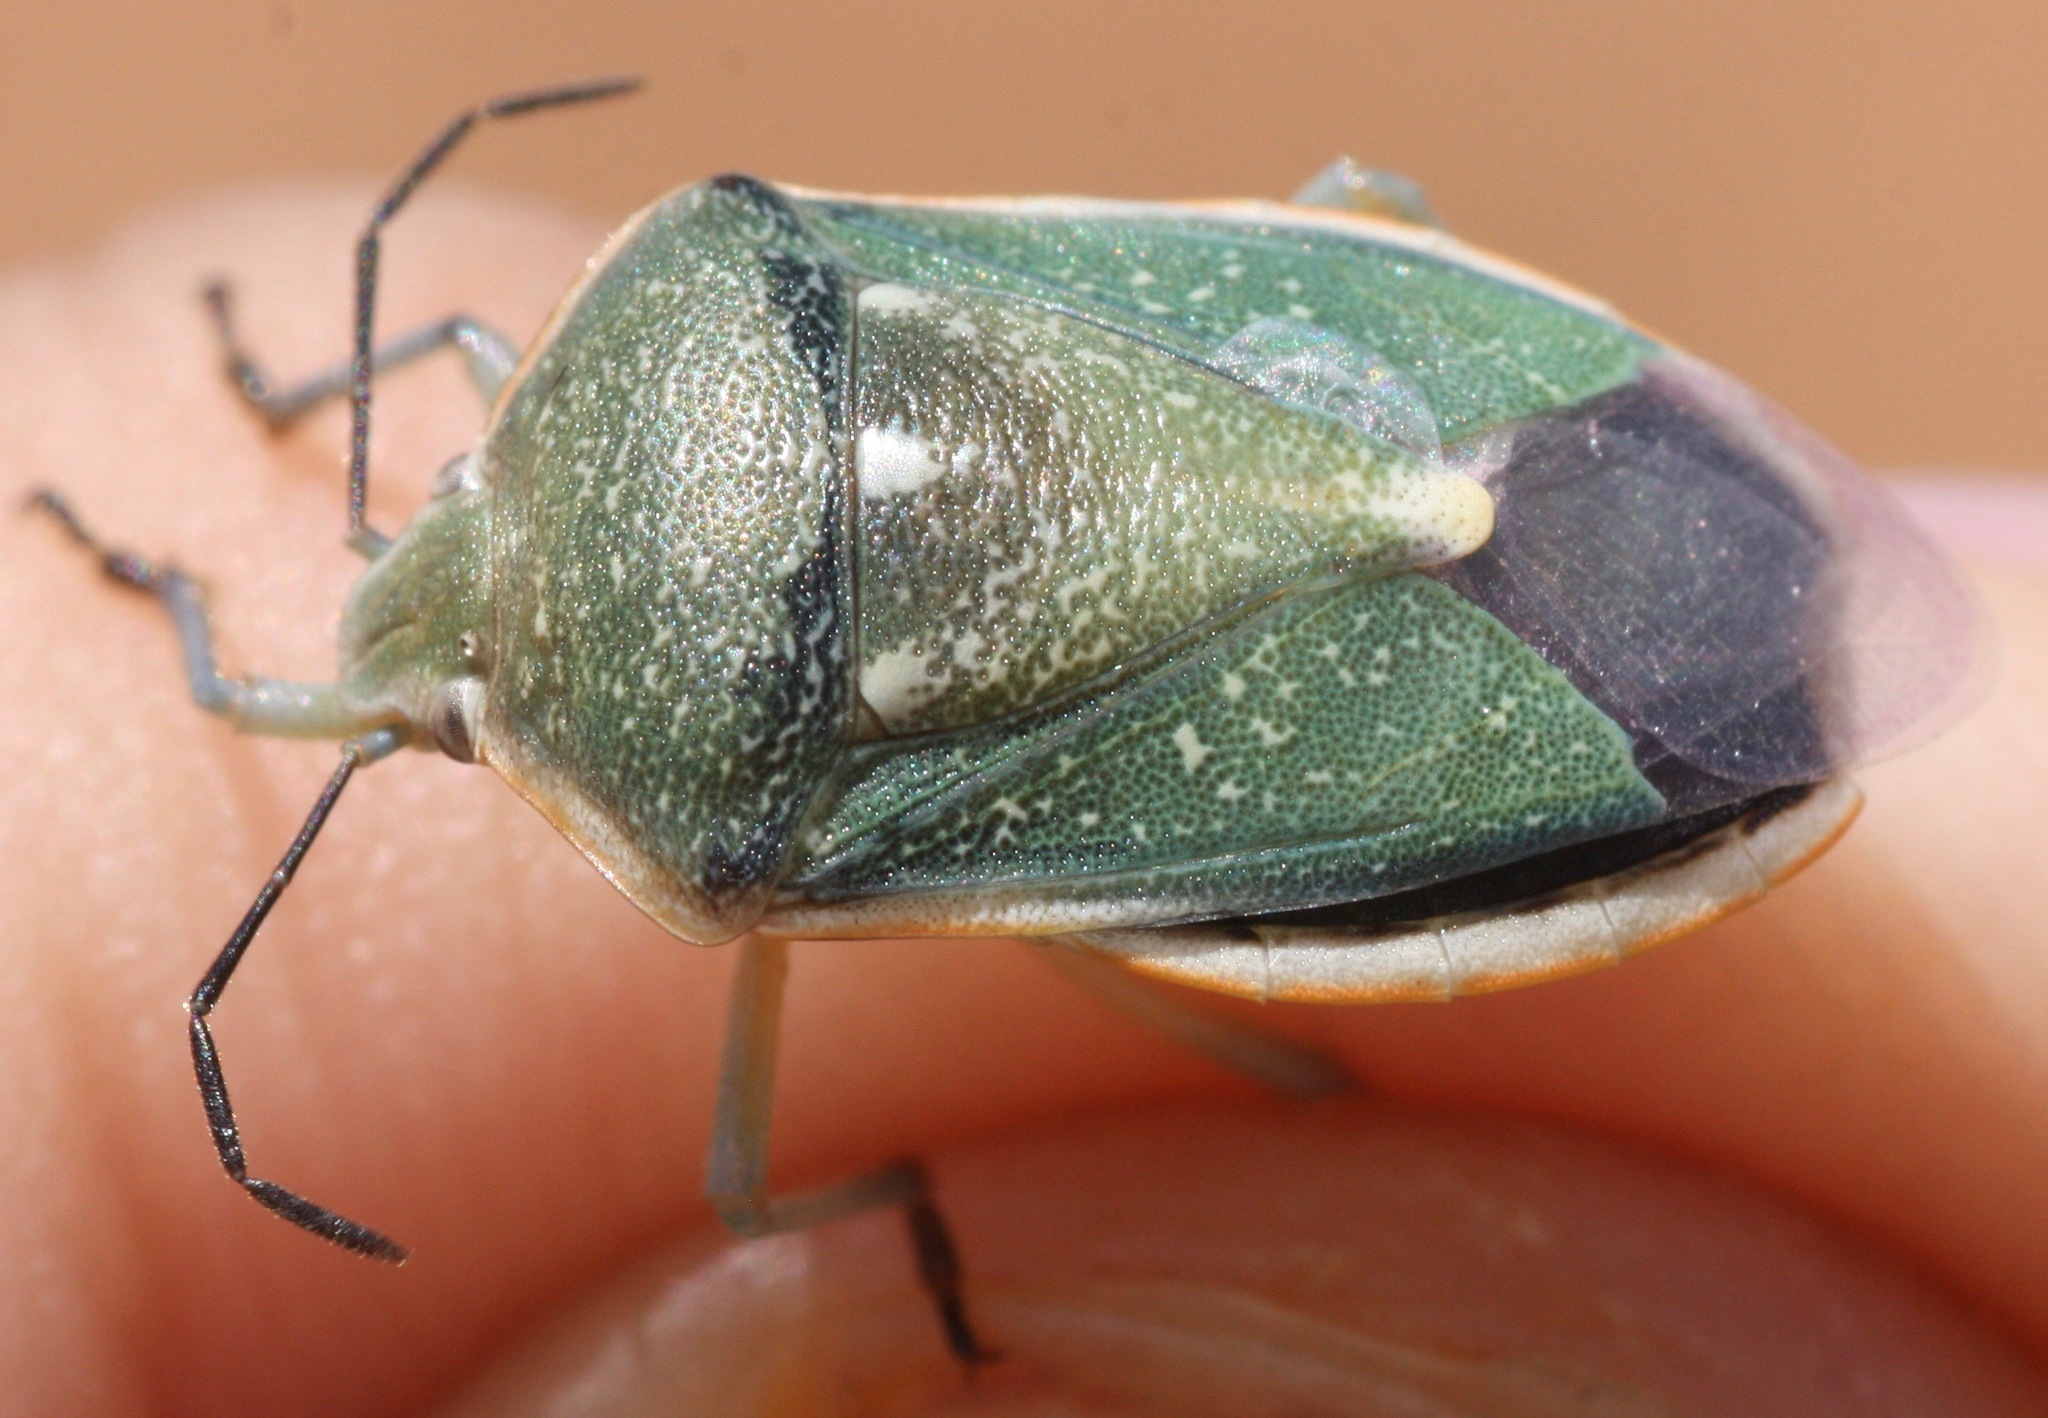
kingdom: Animalia
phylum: Arthropoda
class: Insecta
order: Hemiptera
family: Pentatomidae
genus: Chlorochroa
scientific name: Chlorochroa sayi
